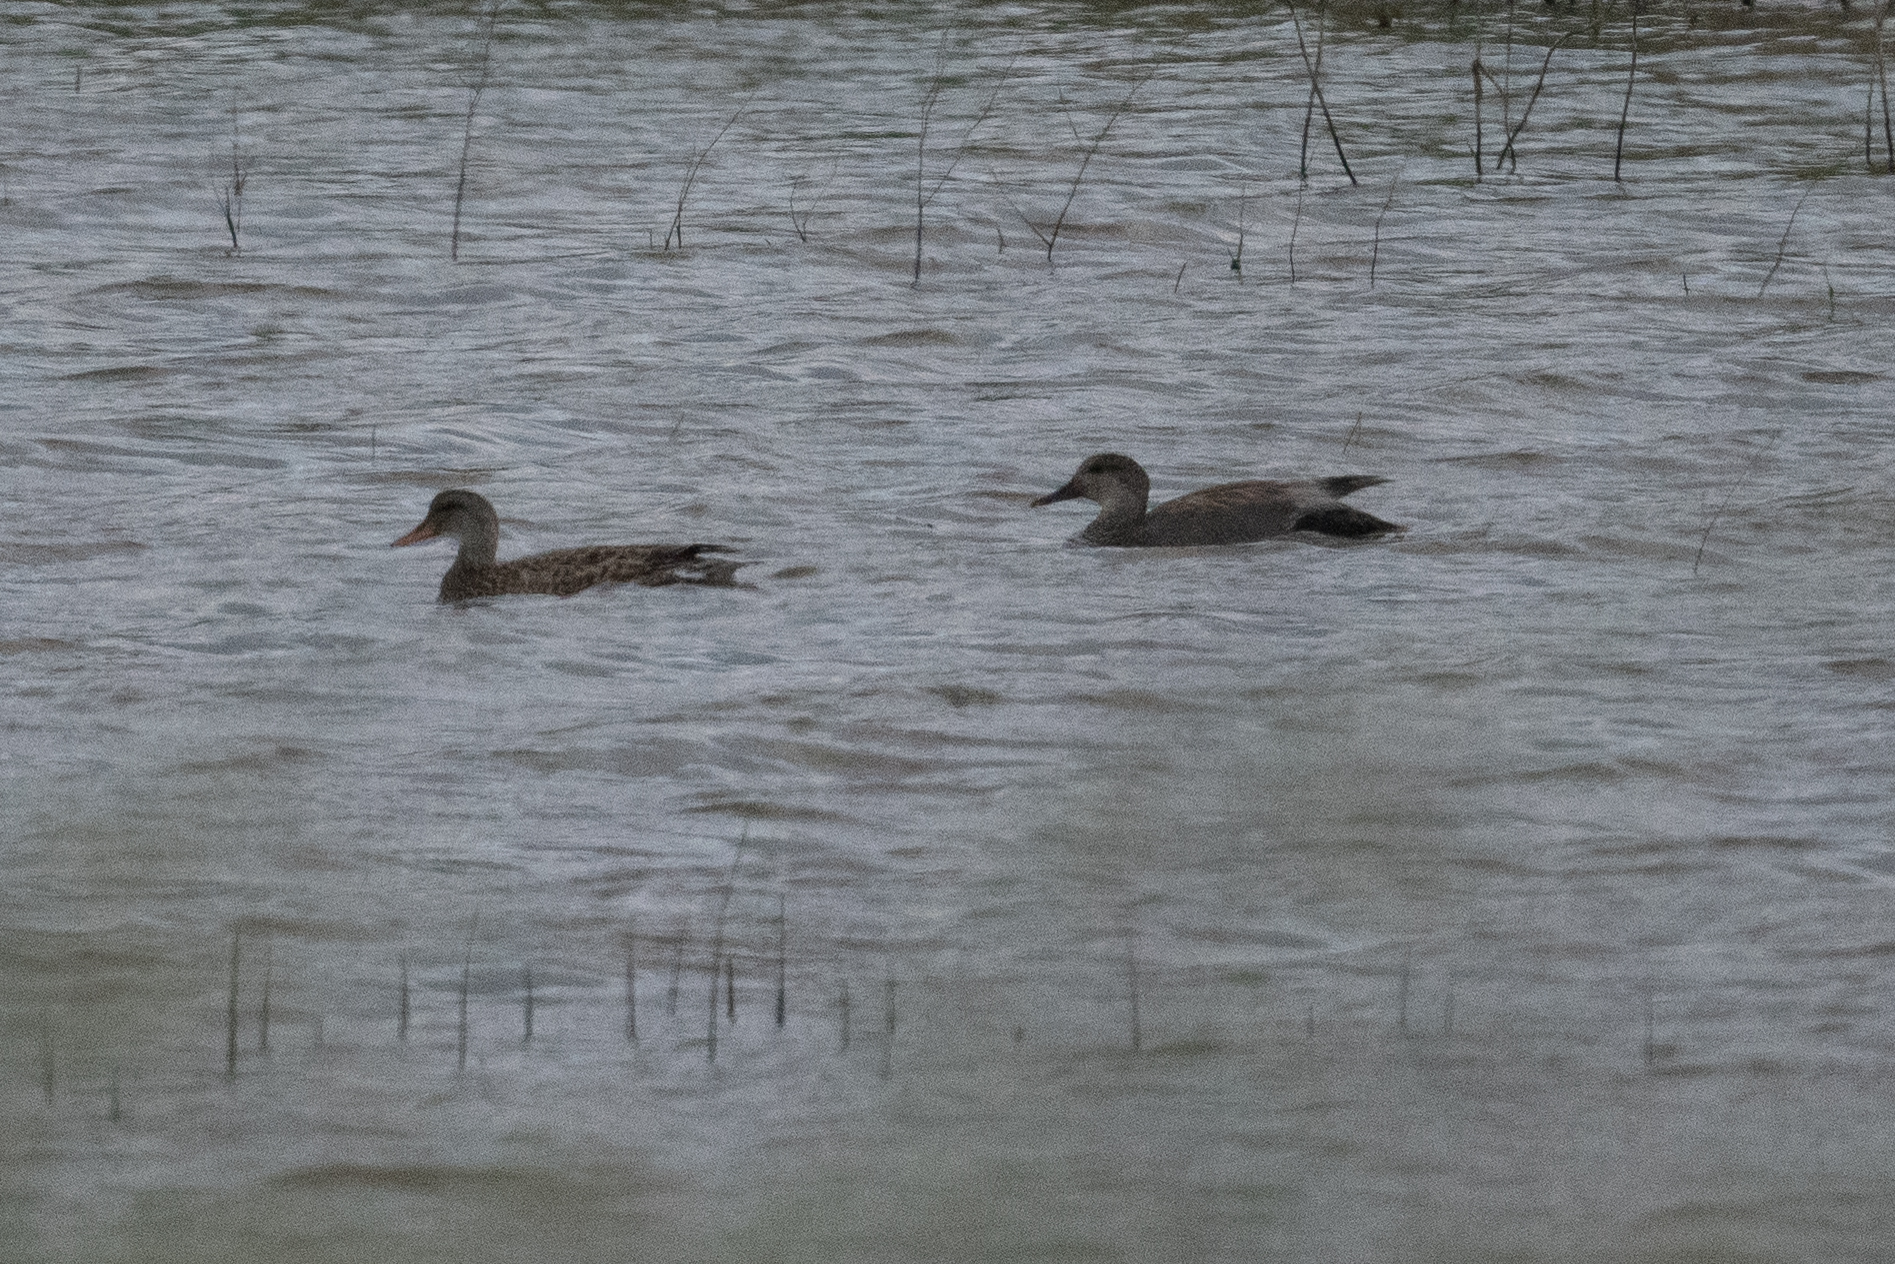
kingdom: Animalia
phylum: Chordata
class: Aves
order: Anseriformes
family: Anatidae
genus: Mareca
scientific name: Mareca strepera
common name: Gadwall
